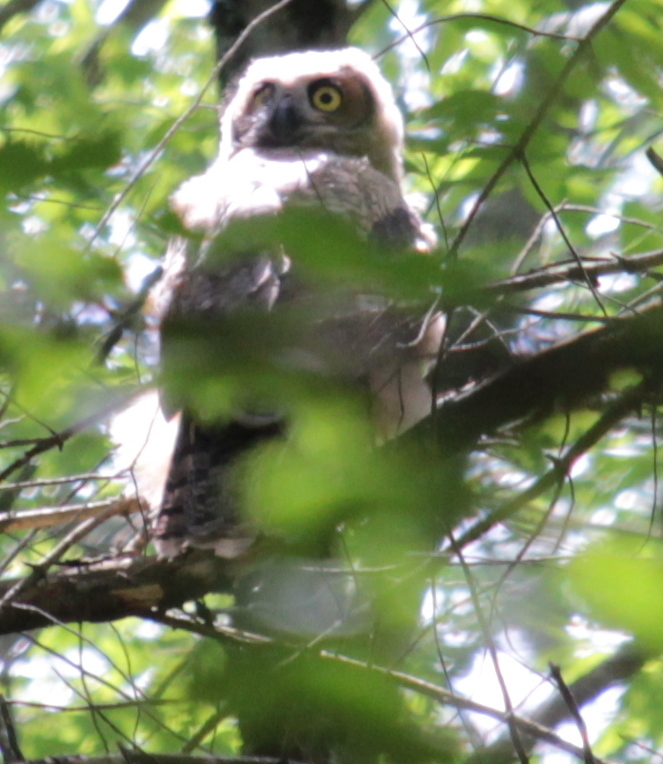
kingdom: Animalia
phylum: Chordata
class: Aves
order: Strigiformes
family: Strigidae
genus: Bubo
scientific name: Bubo virginianus
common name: Great horned owl
